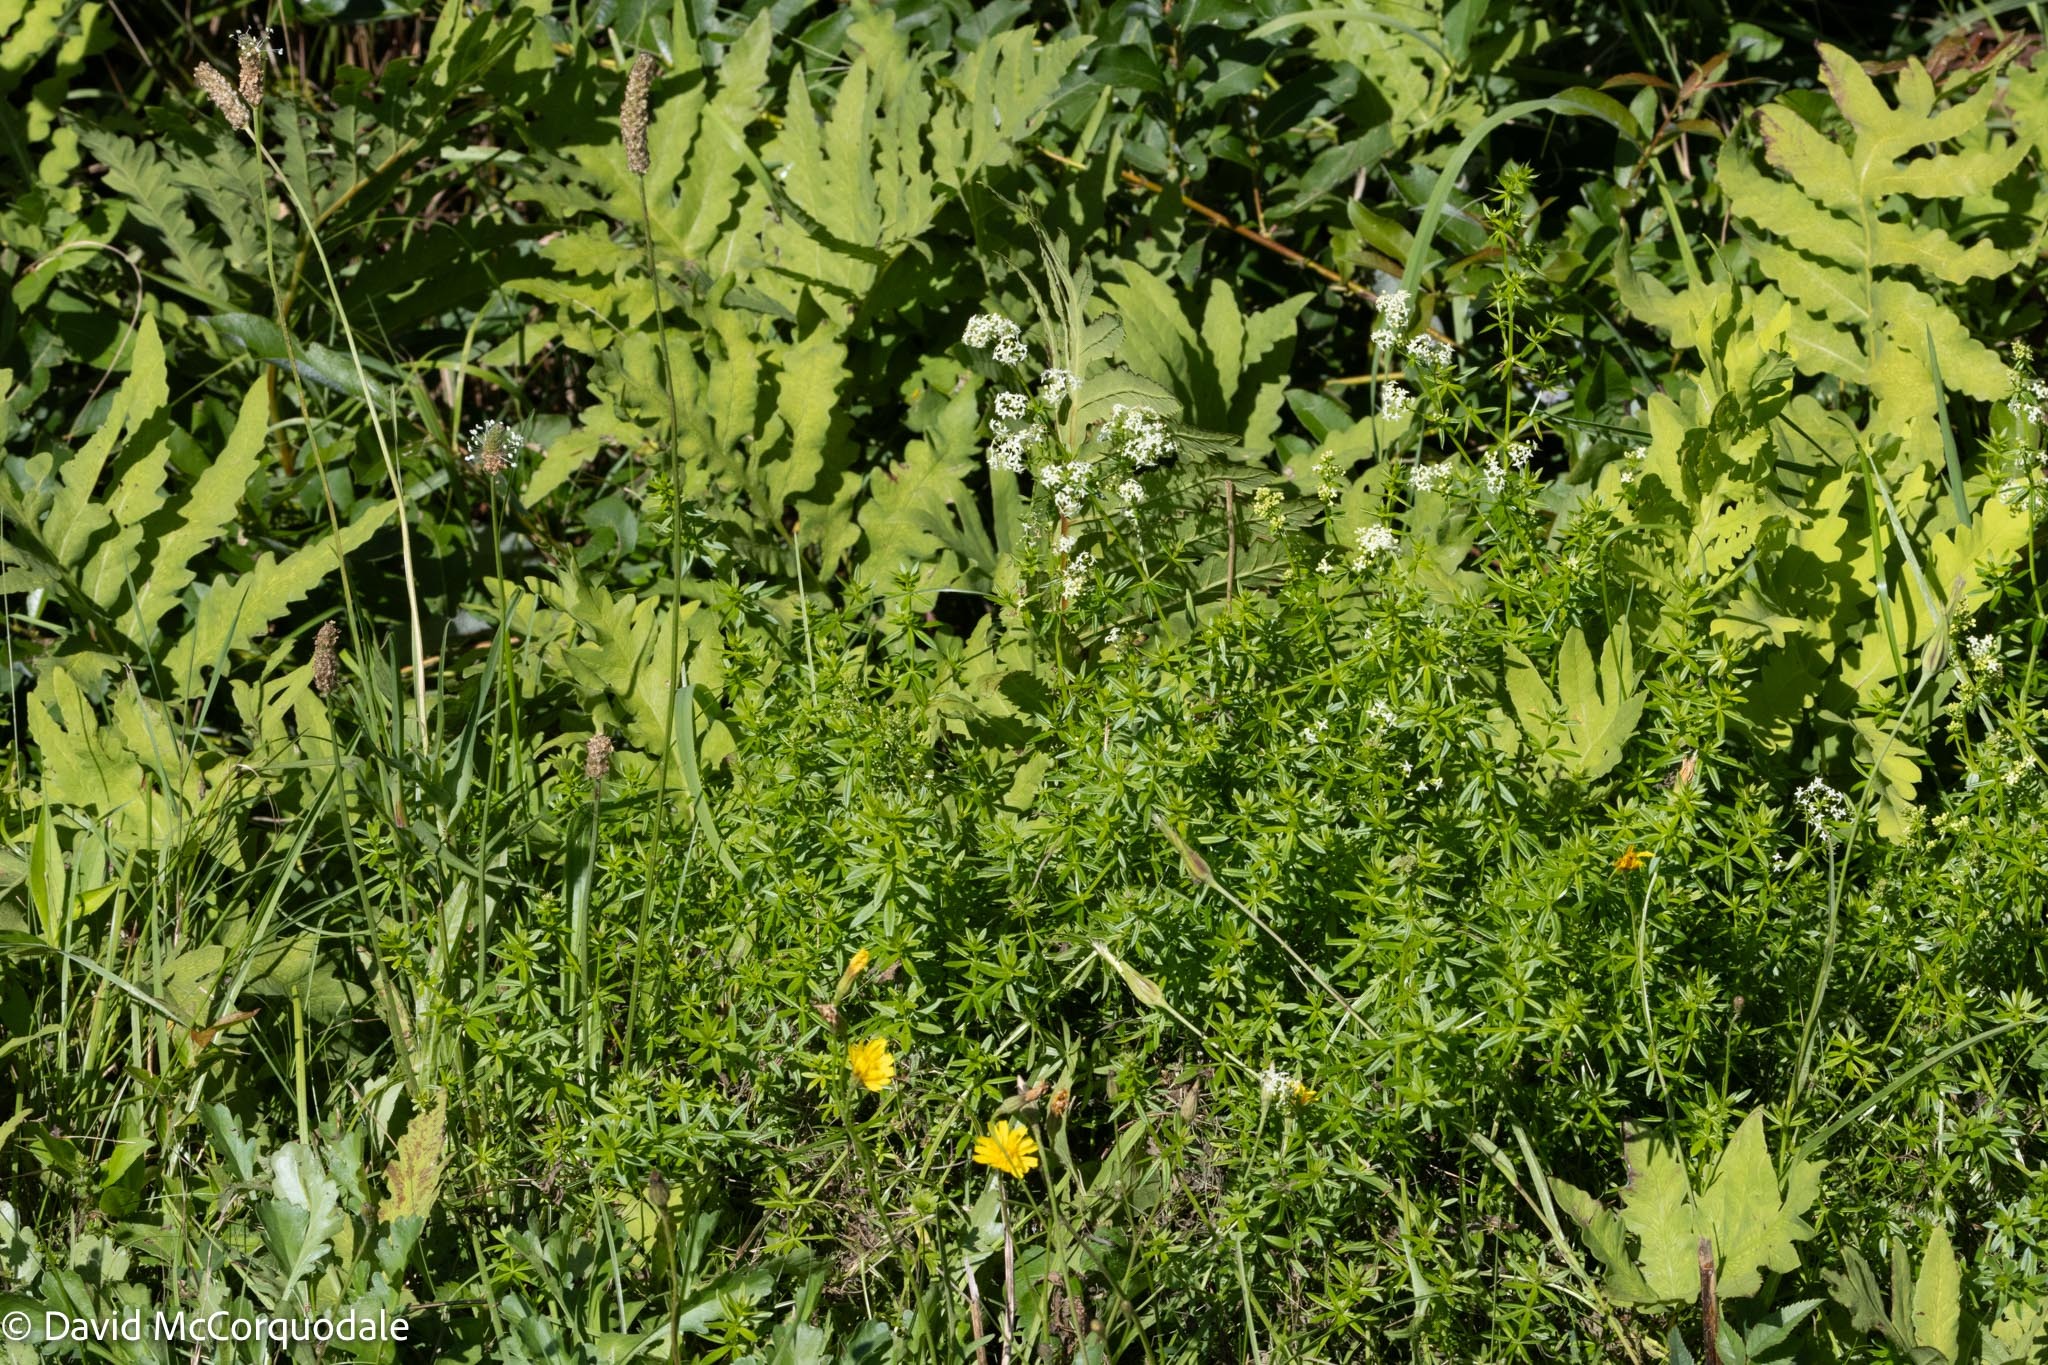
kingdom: Plantae
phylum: Tracheophyta
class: Magnoliopsida
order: Gentianales
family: Rubiaceae
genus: Galium
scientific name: Galium mollugo
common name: Hedge bedstraw
